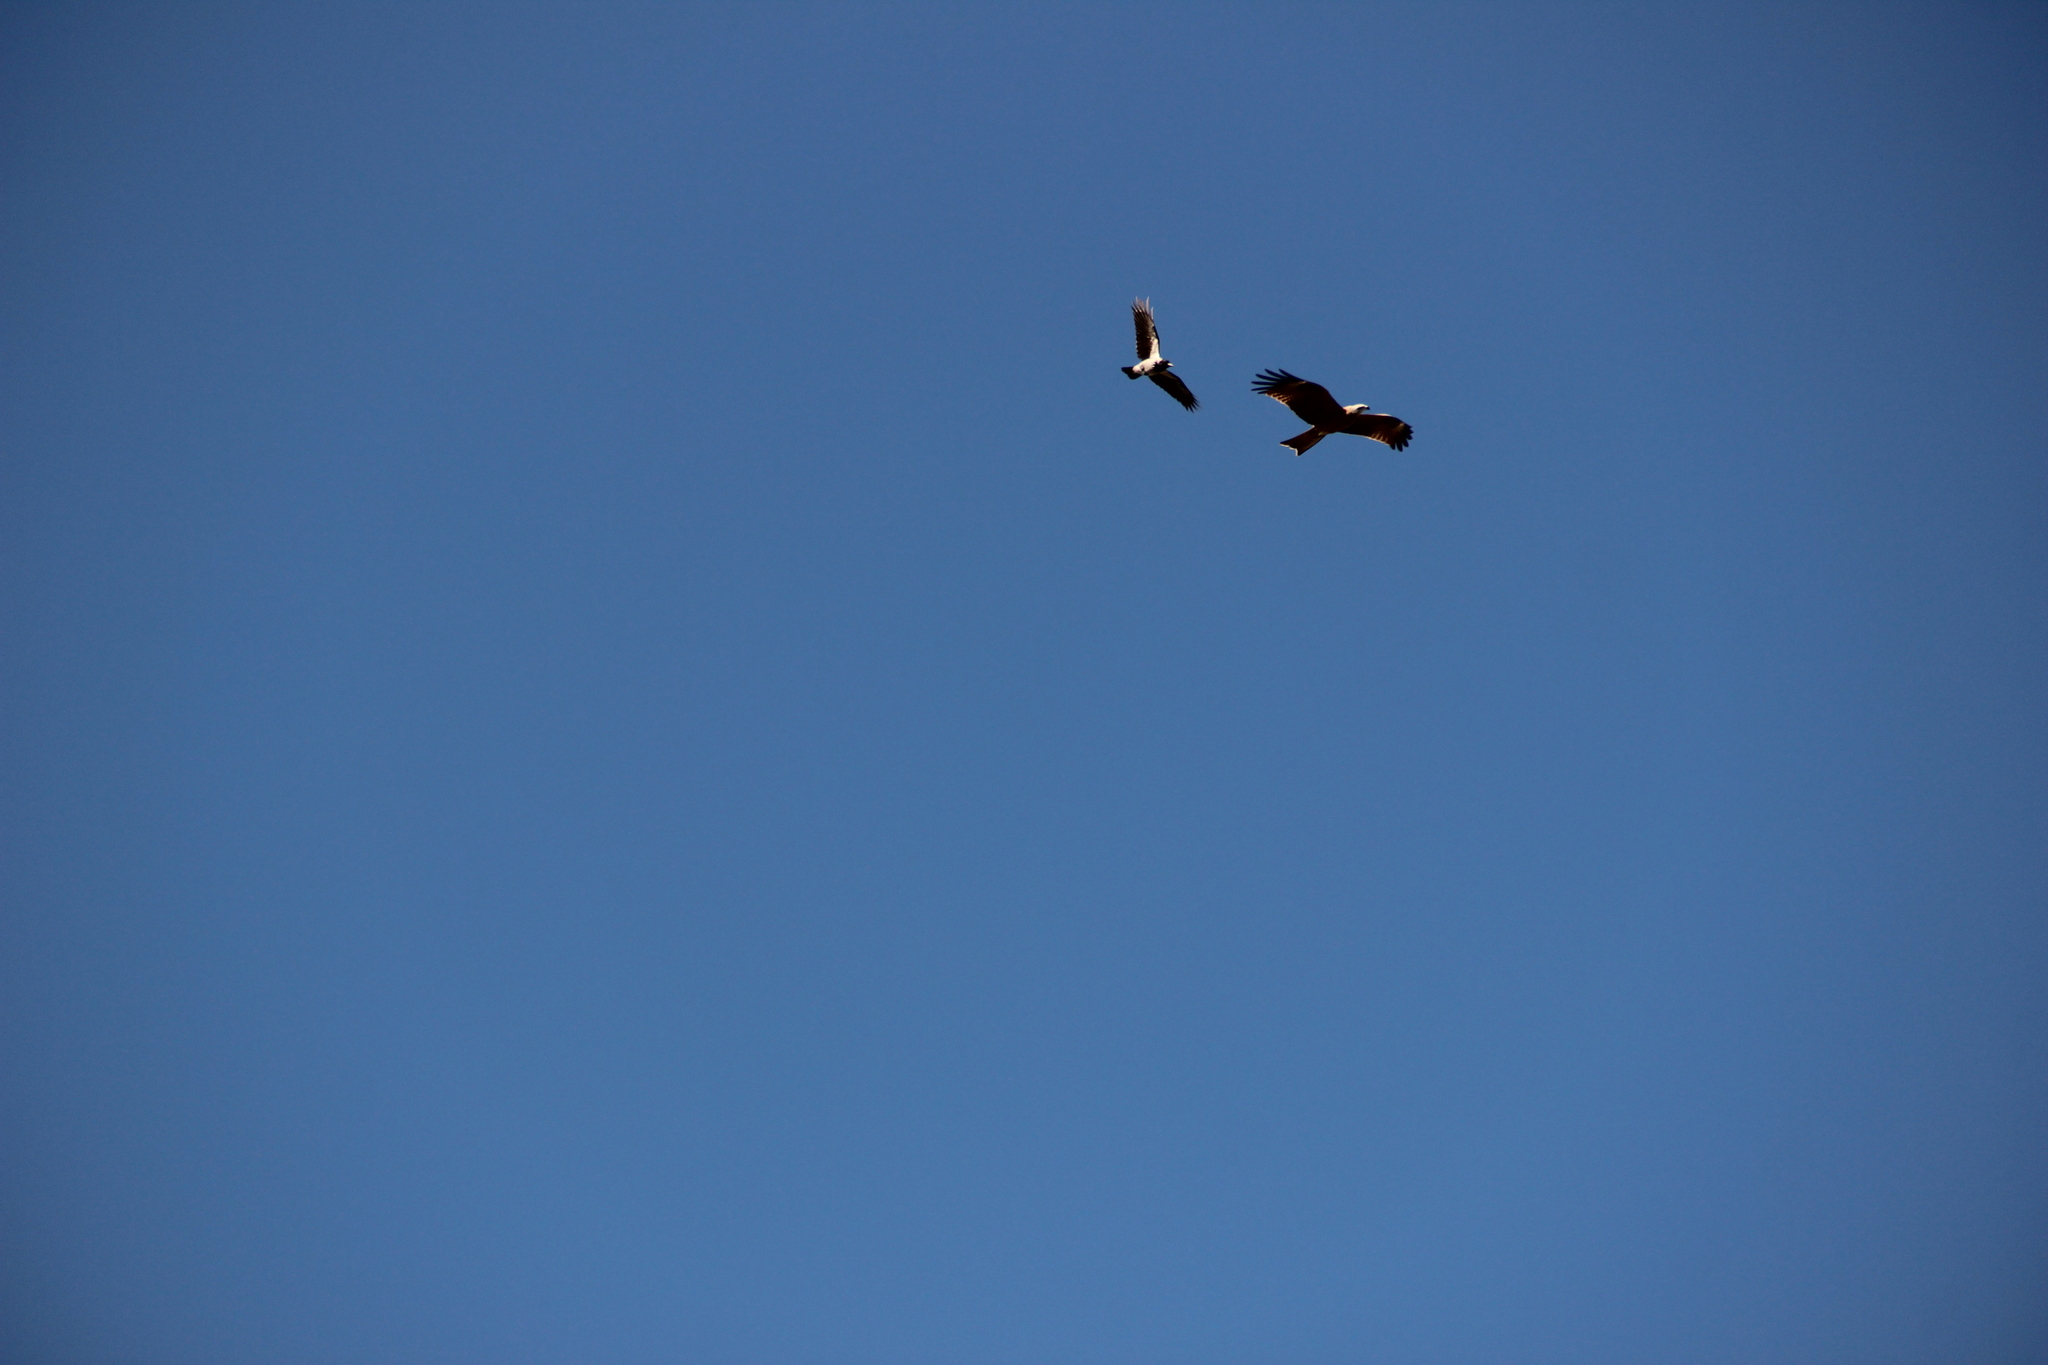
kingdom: Animalia
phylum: Chordata
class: Aves
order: Accipitriformes
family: Accipitridae
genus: Milvus
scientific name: Milvus migrans
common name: Black kite
